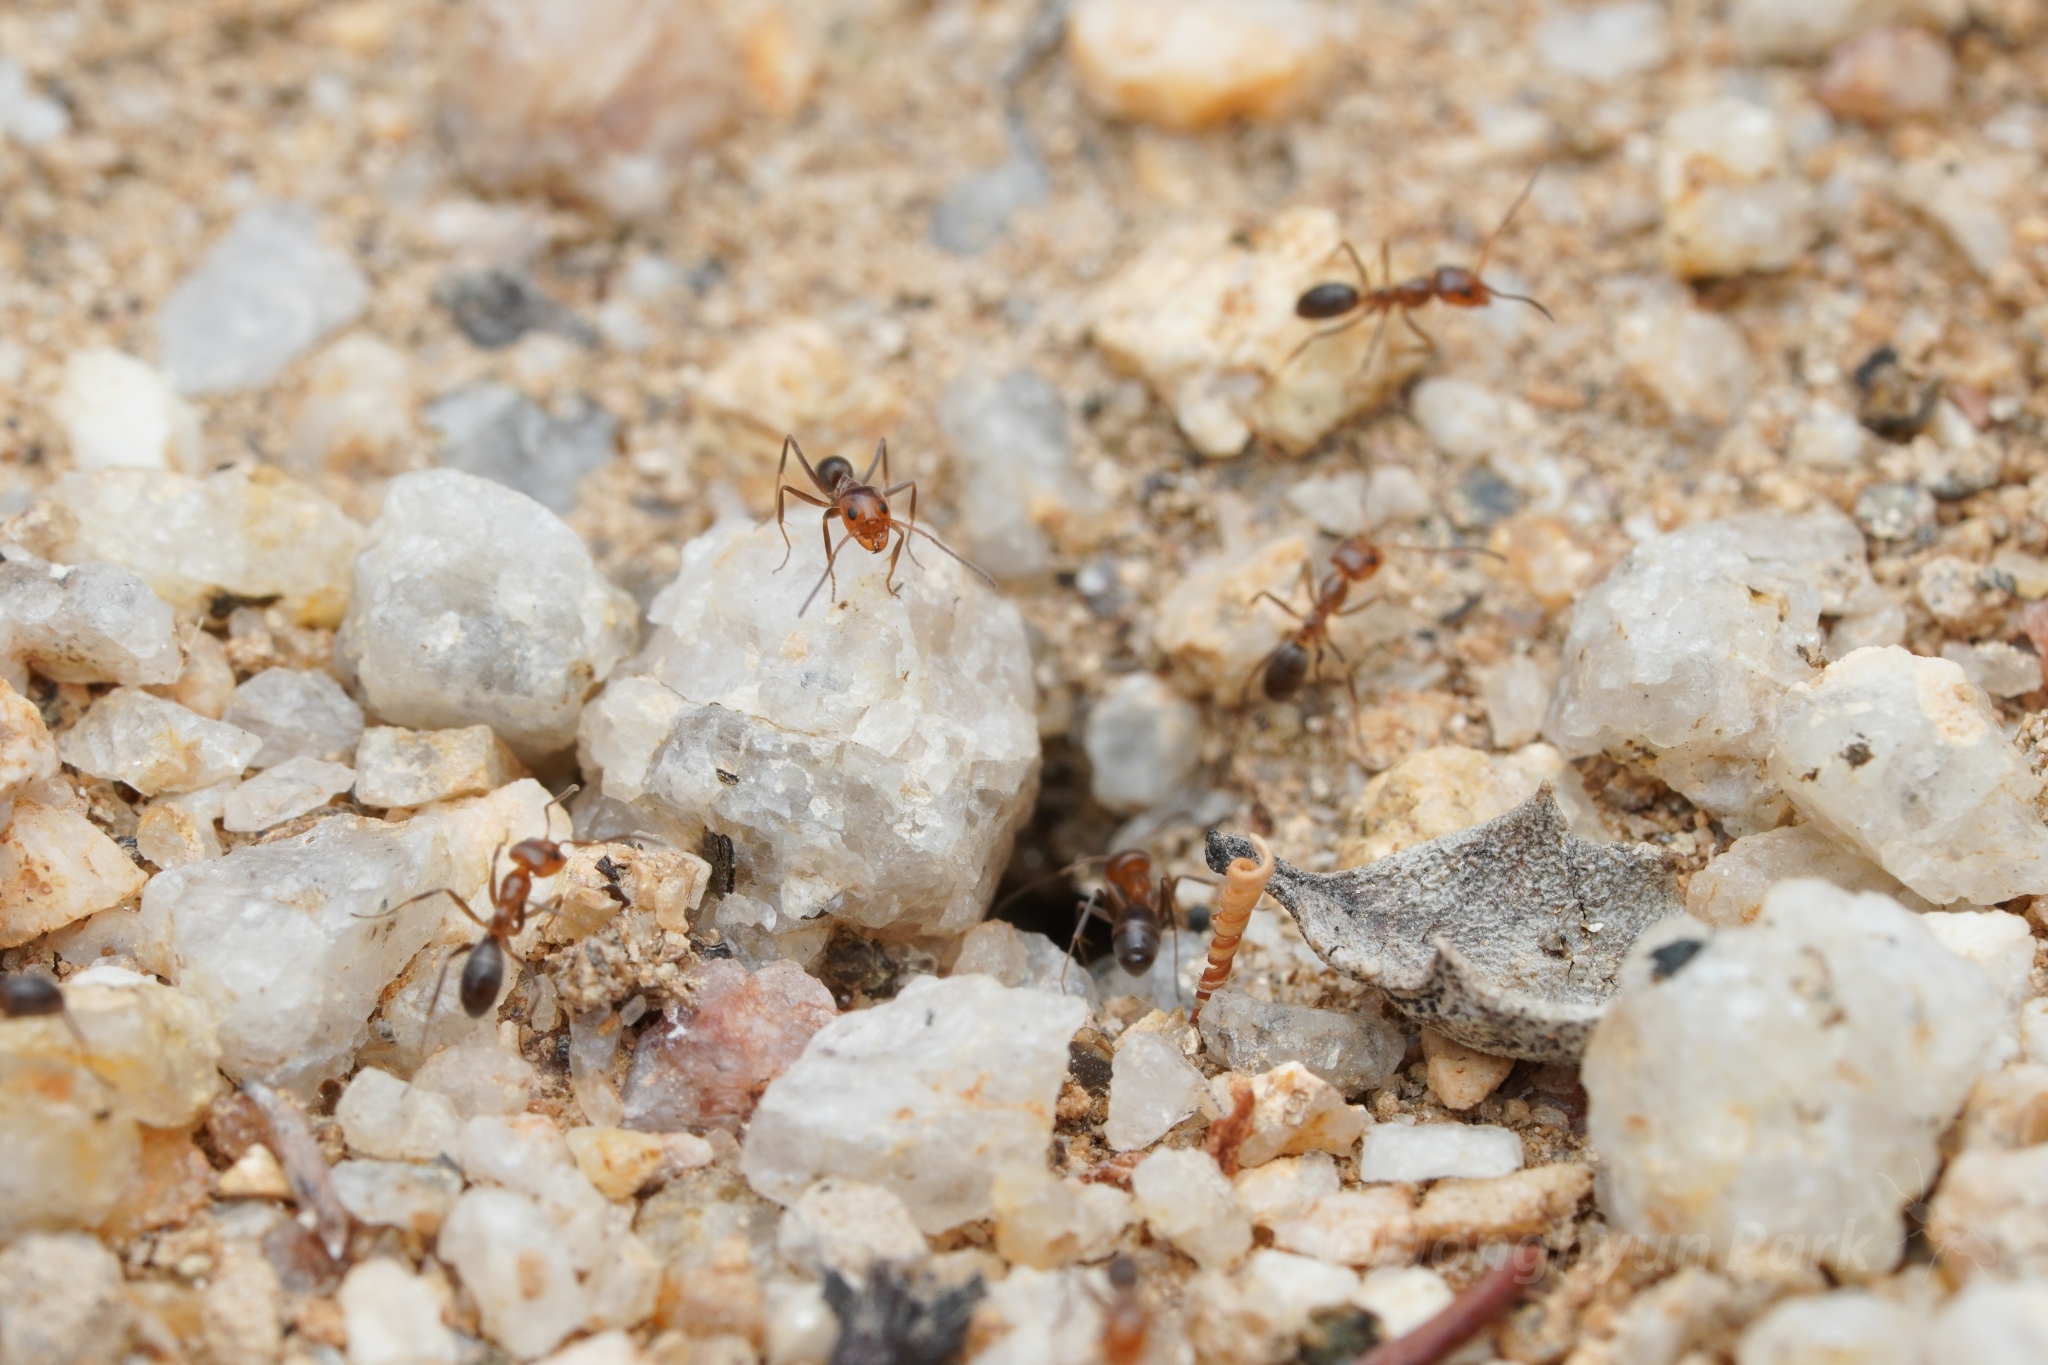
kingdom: Animalia
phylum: Arthropoda
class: Insecta
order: Hymenoptera
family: Formicidae
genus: Dorymyrmex
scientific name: Dorymyrmex bicolor
